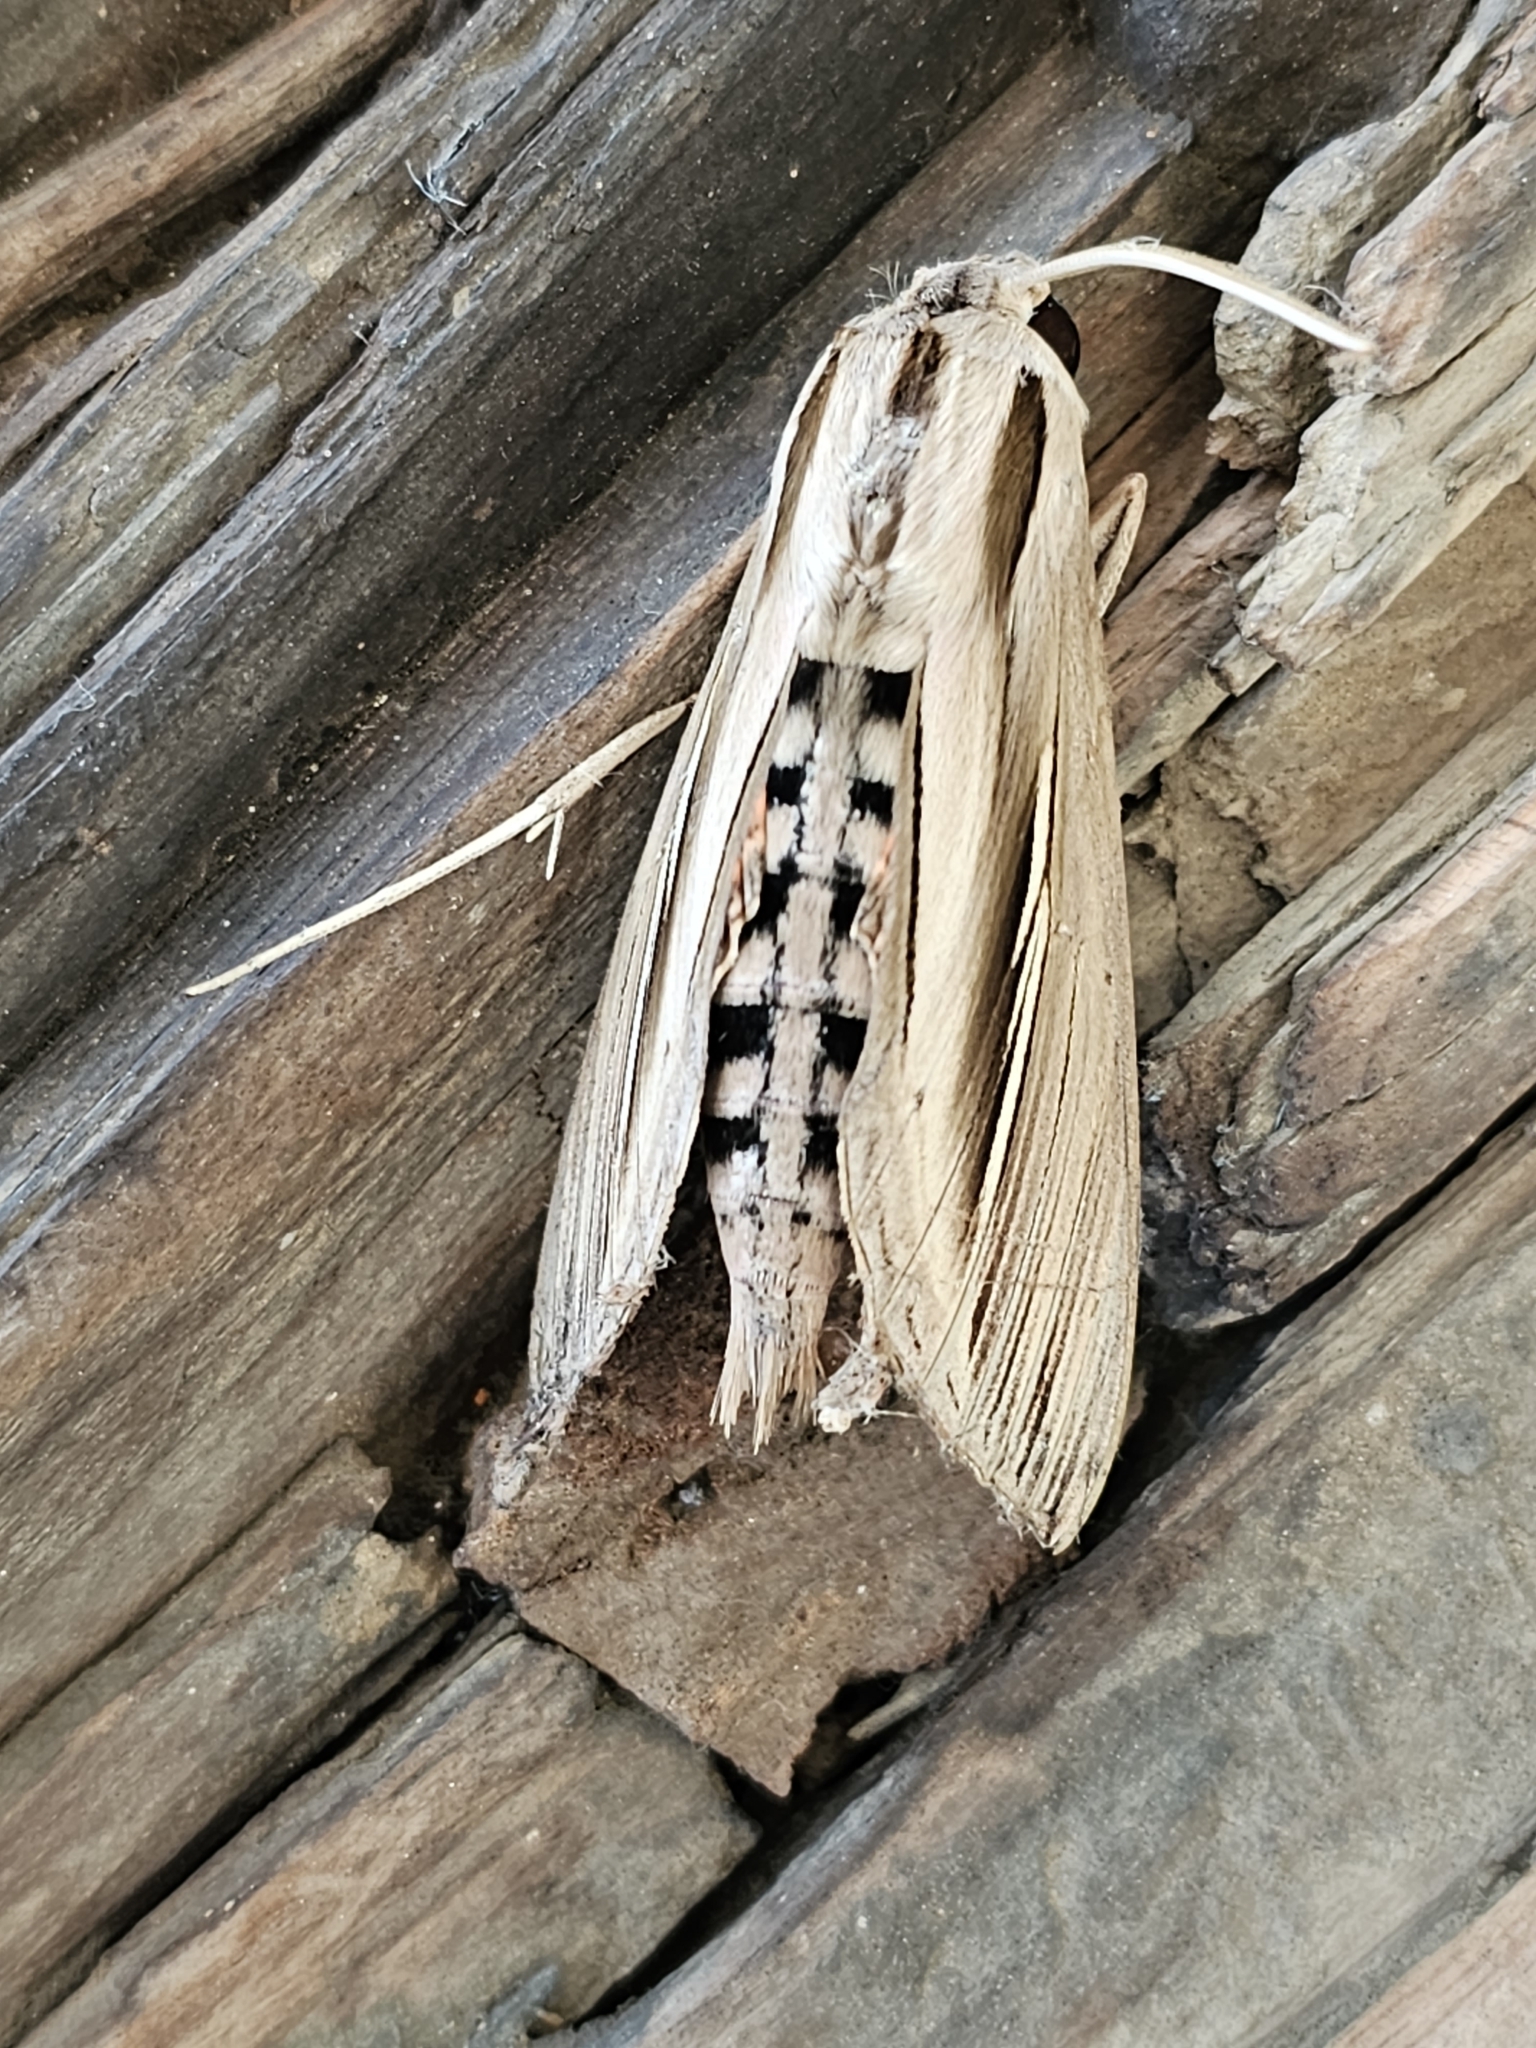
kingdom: Animalia
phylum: Arthropoda
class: Insecta
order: Lepidoptera
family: Sphingidae
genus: Phryxus
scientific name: Phryxus caicus
